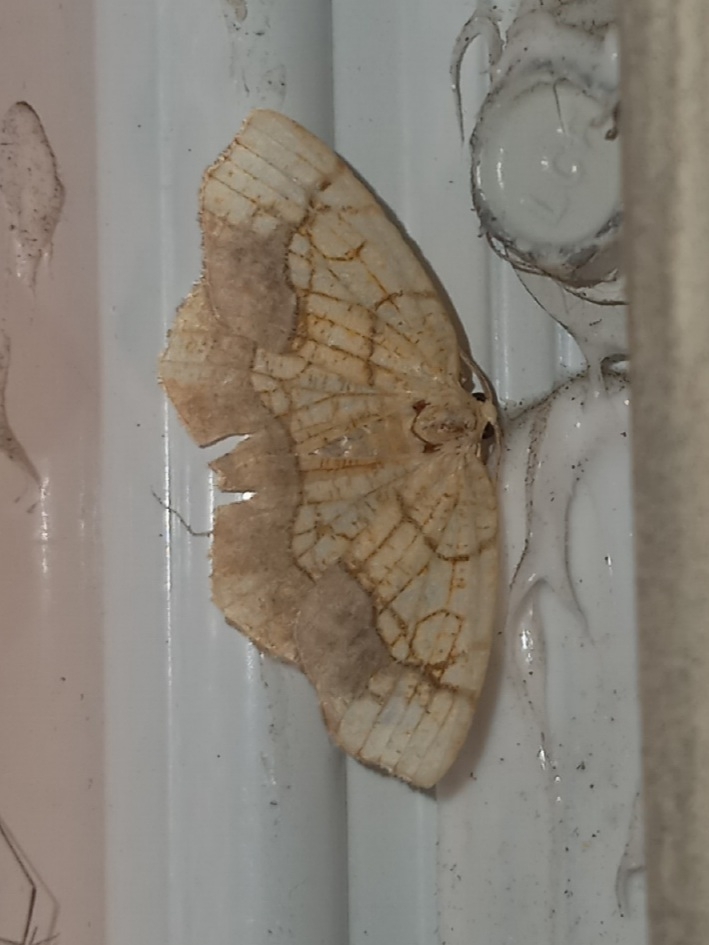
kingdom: Animalia
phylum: Arthropoda
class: Insecta
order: Lepidoptera
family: Geometridae
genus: Nematocampa
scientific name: Nematocampa resistaria
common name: Horned spanworm moth
